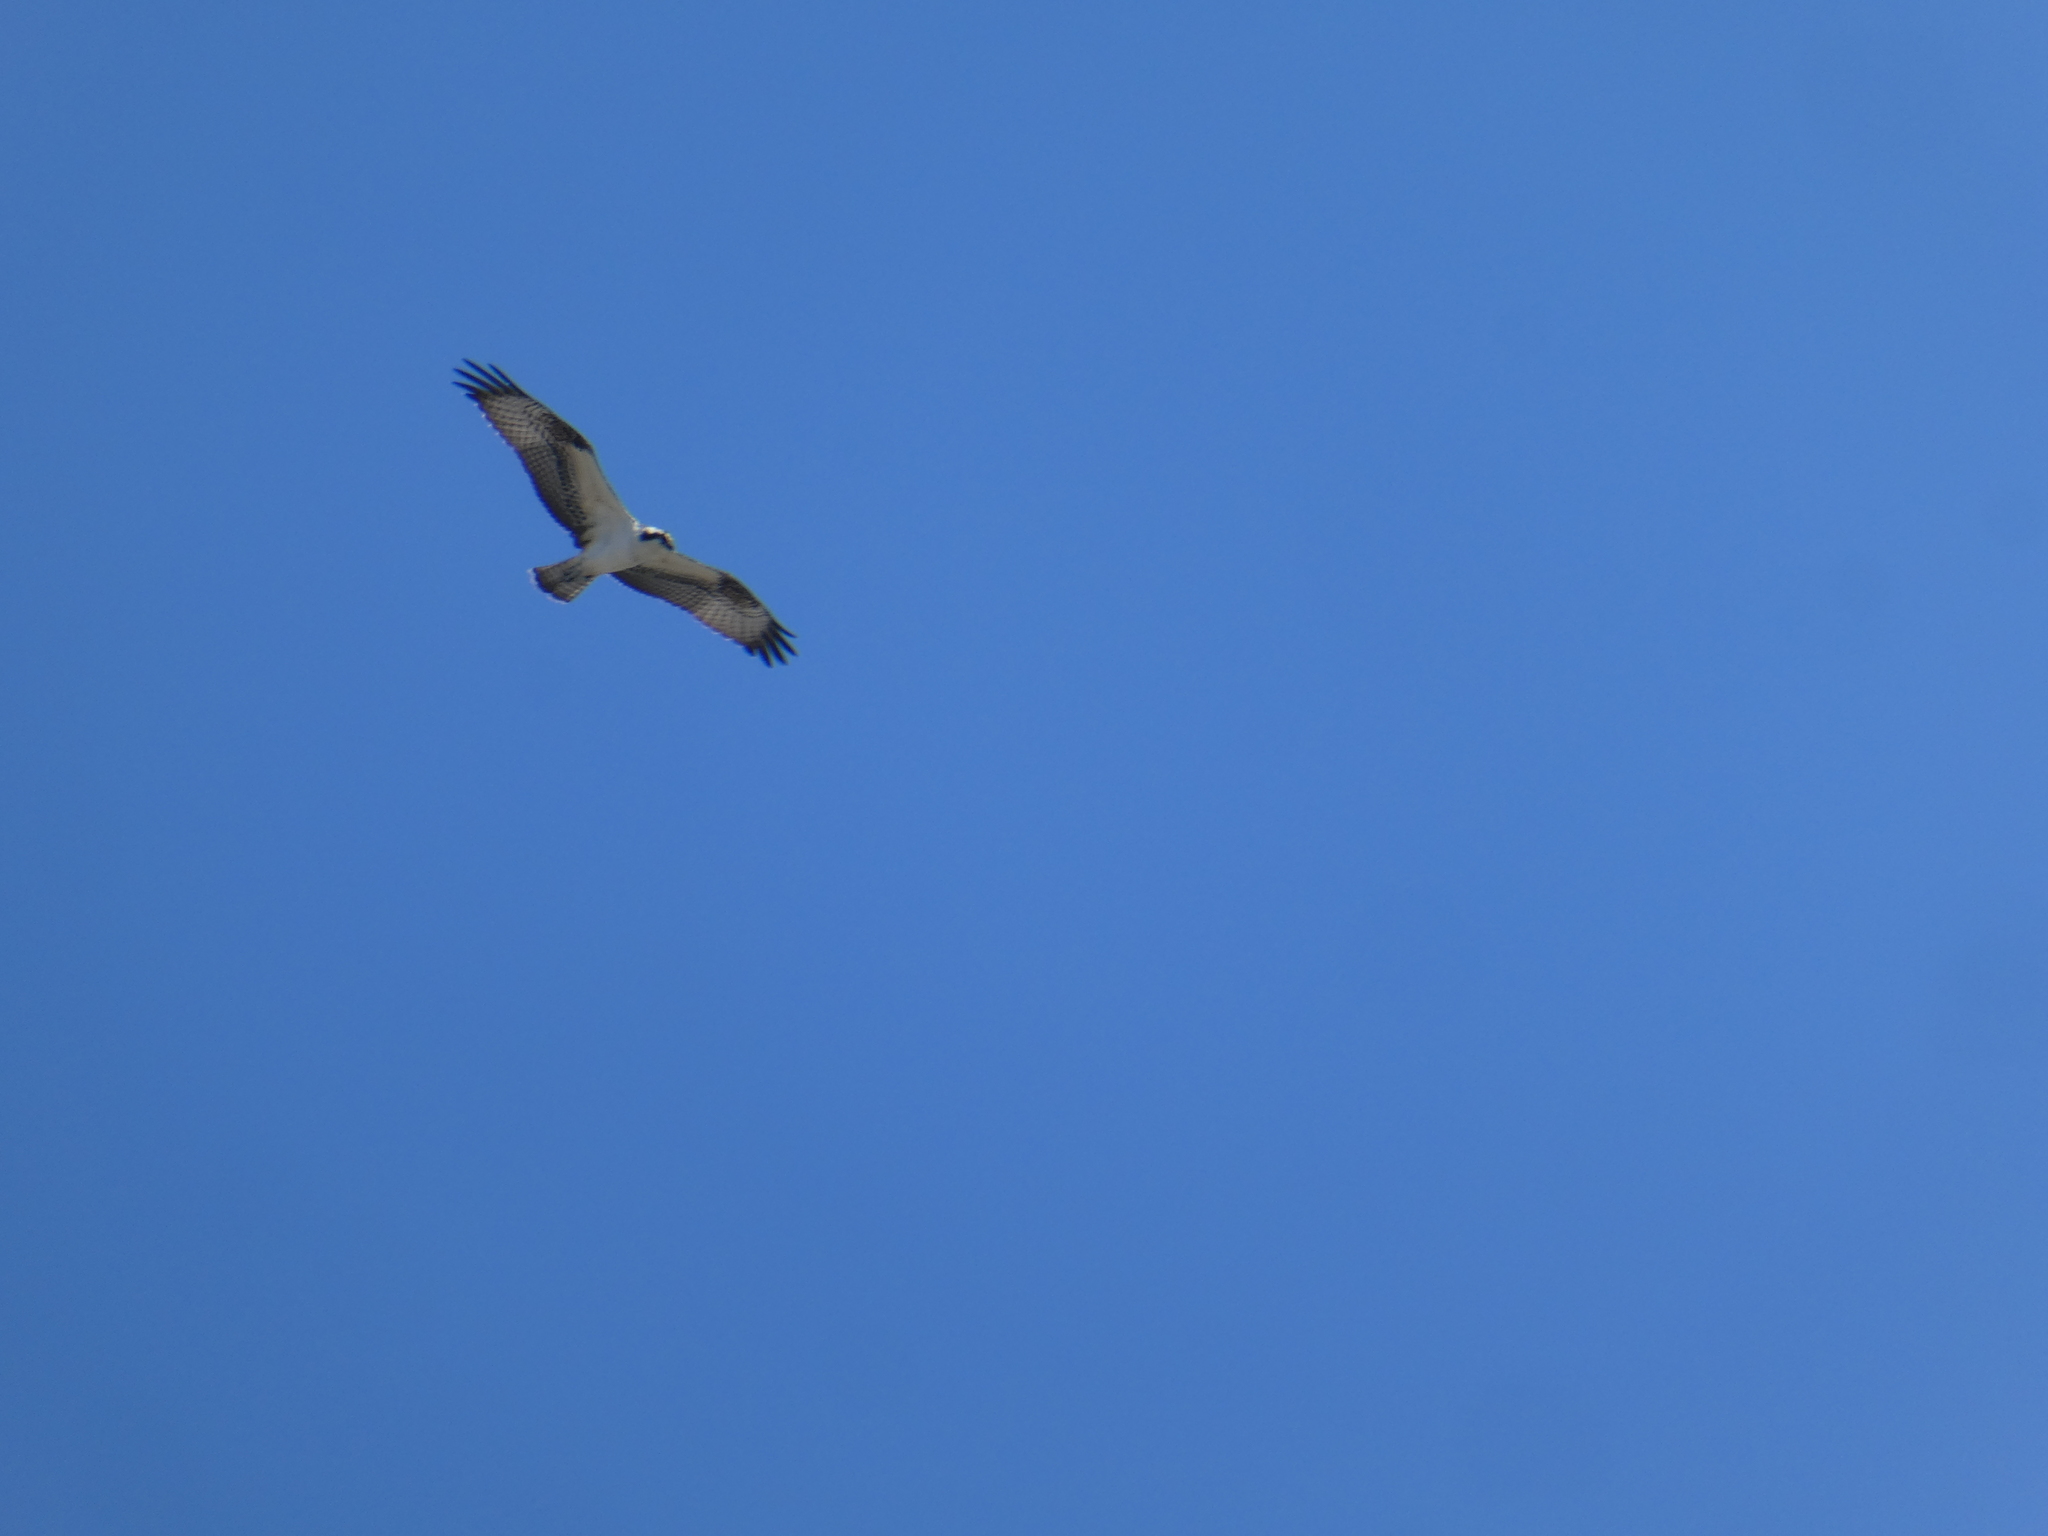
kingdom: Animalia
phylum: Chordata
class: Aves
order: Accipitriformes
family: Pandionidae
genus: Pandion
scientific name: Pandion haliaetus
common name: Osprey
